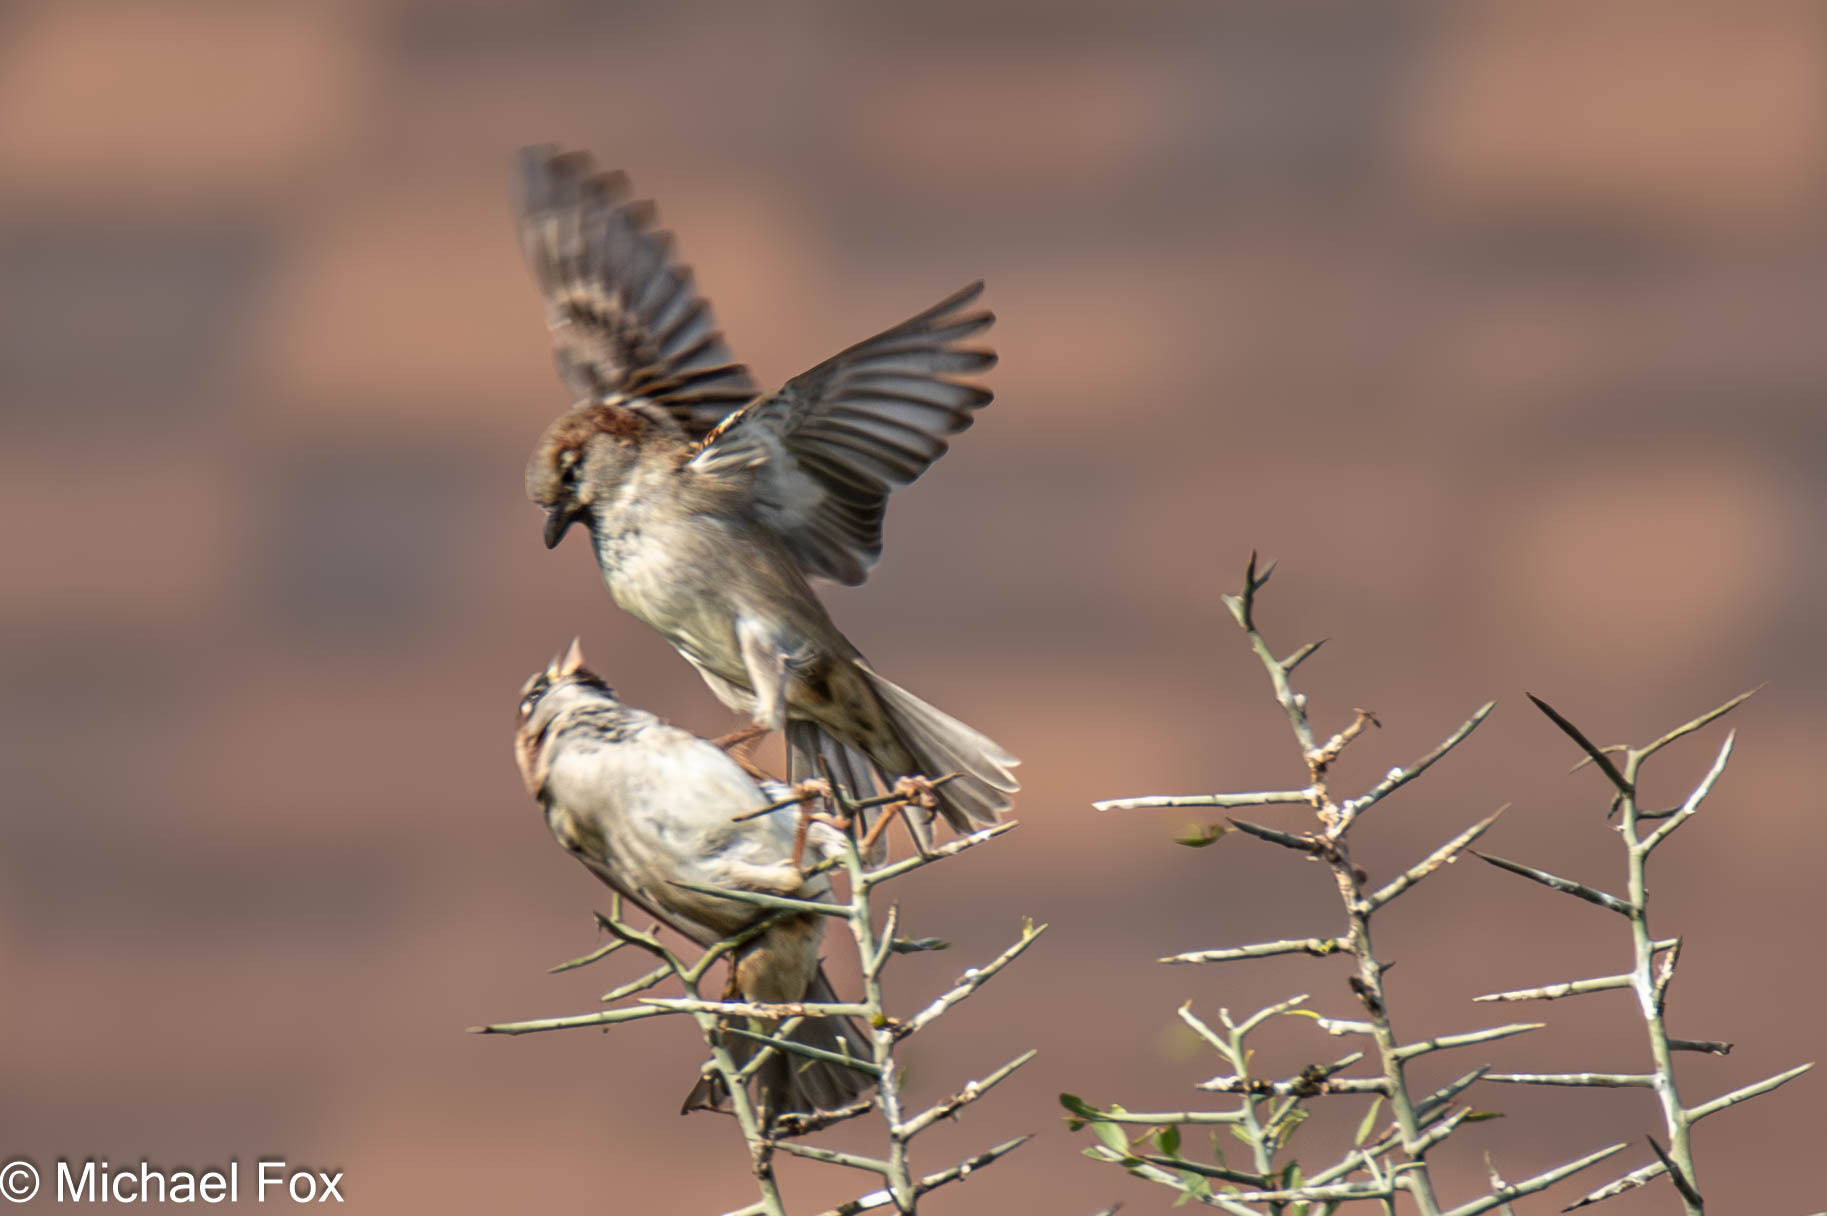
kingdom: Animalia
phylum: Chordata
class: Aves
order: Passeriformes
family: Passeridae
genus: Passer
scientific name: Passer domesticus
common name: House sparrow
